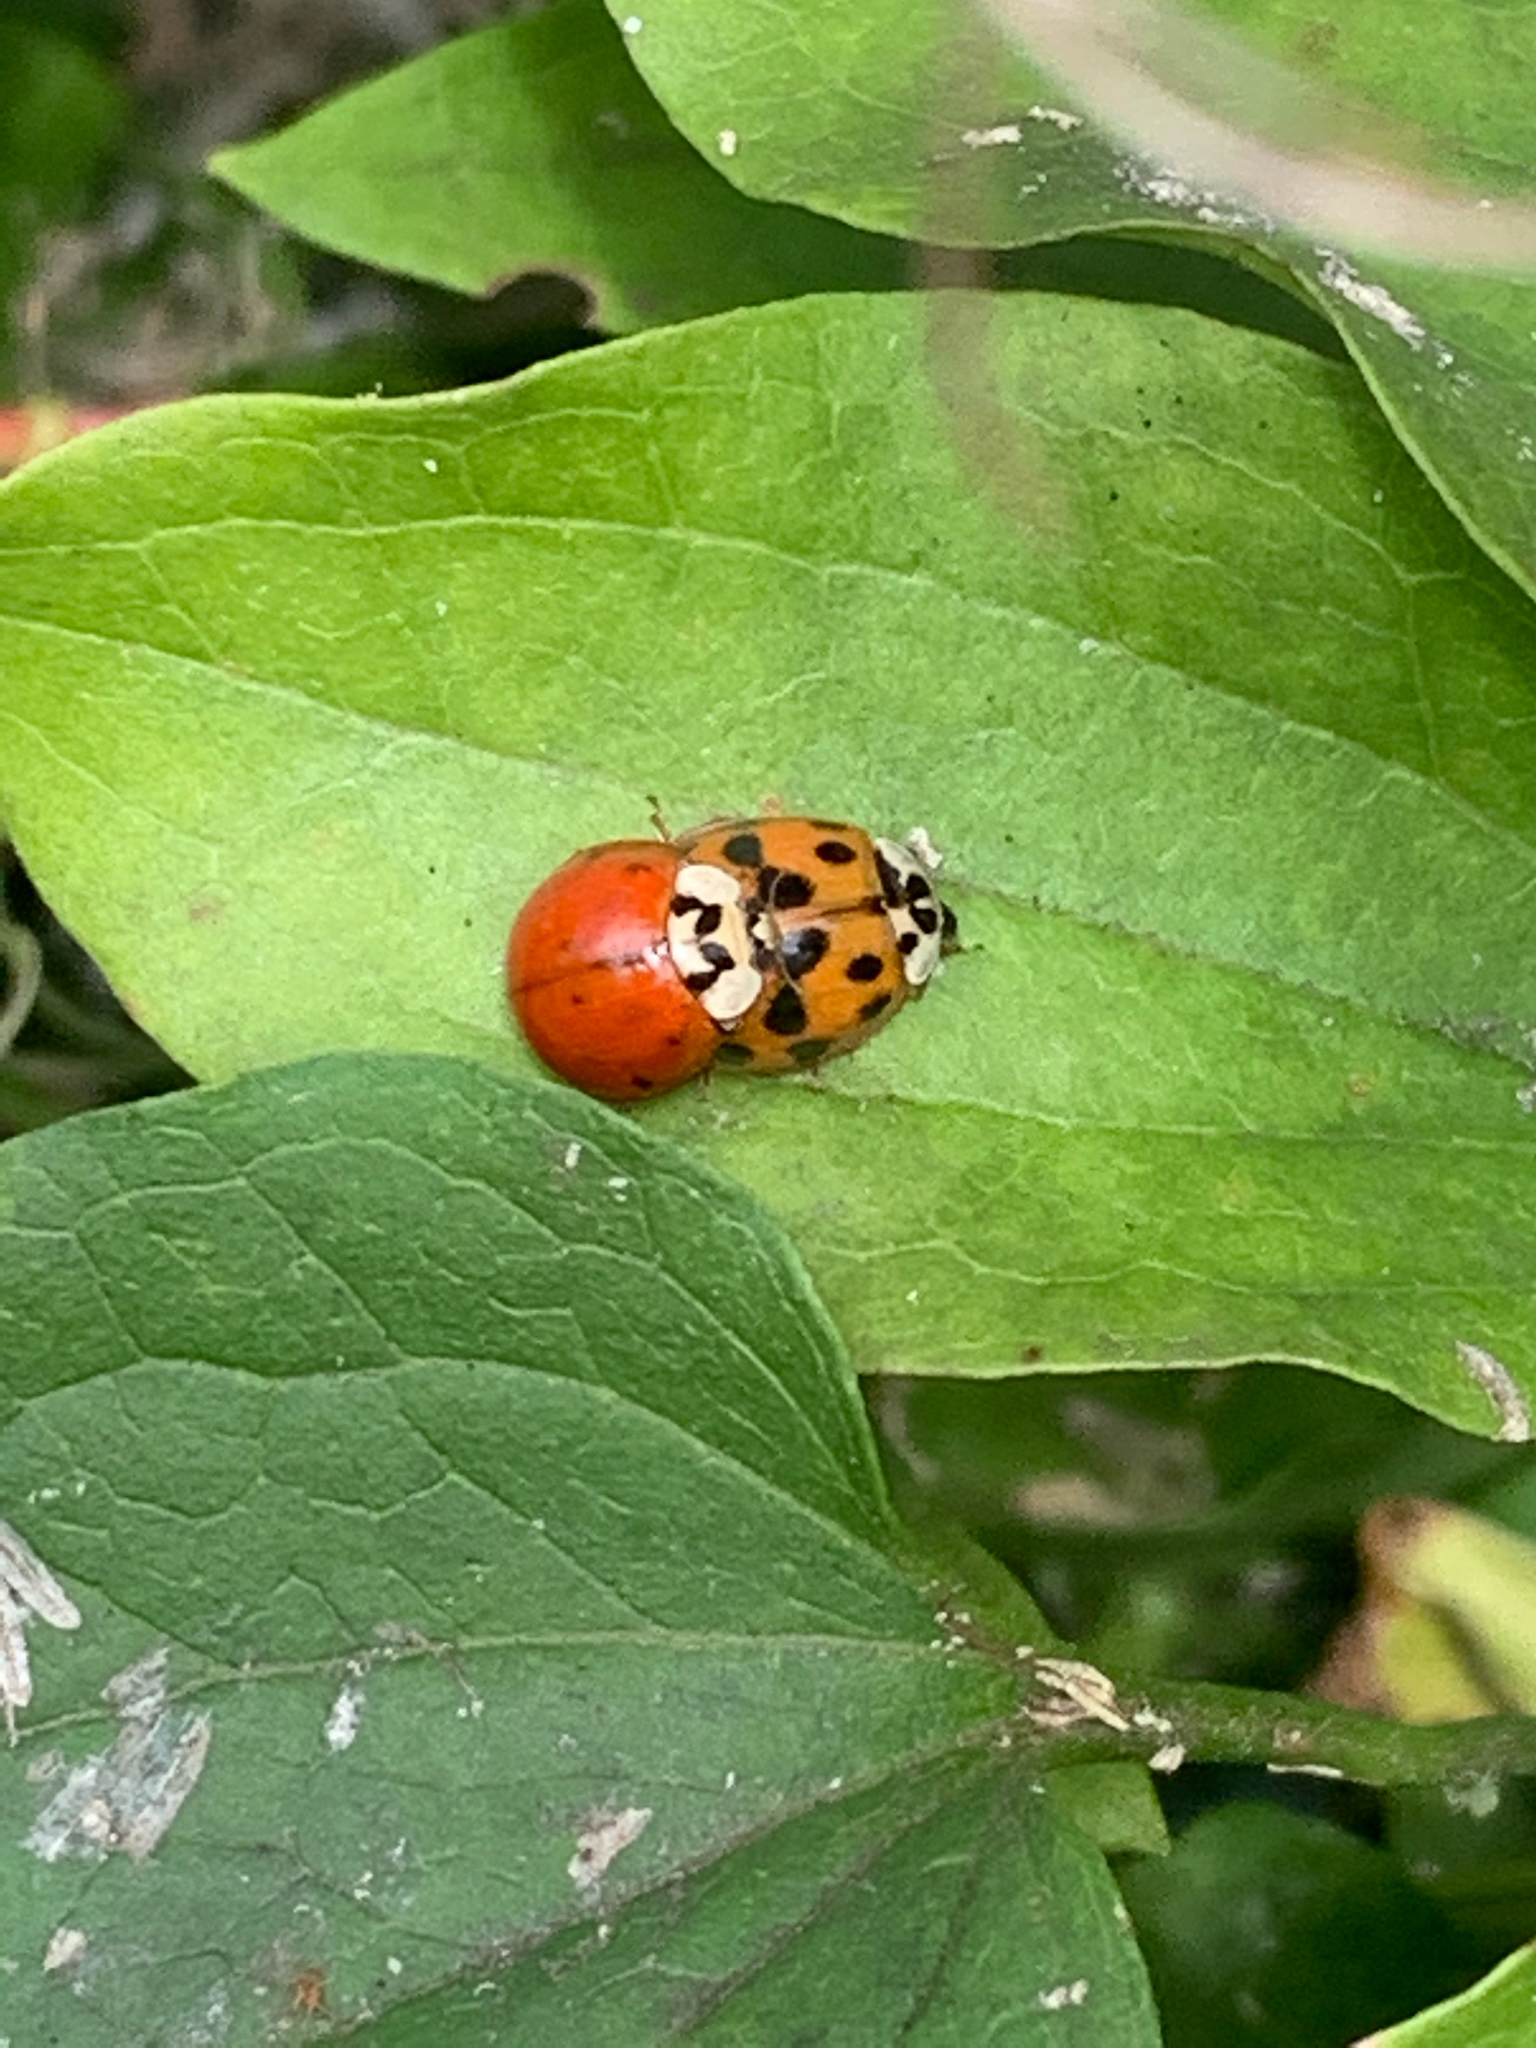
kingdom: Animalia
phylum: Arthropoda
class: Insecta
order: Coleoptera
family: Coccinellidae
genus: Harmonia
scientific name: Harmonia axyridis
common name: Harlequin ladybird
